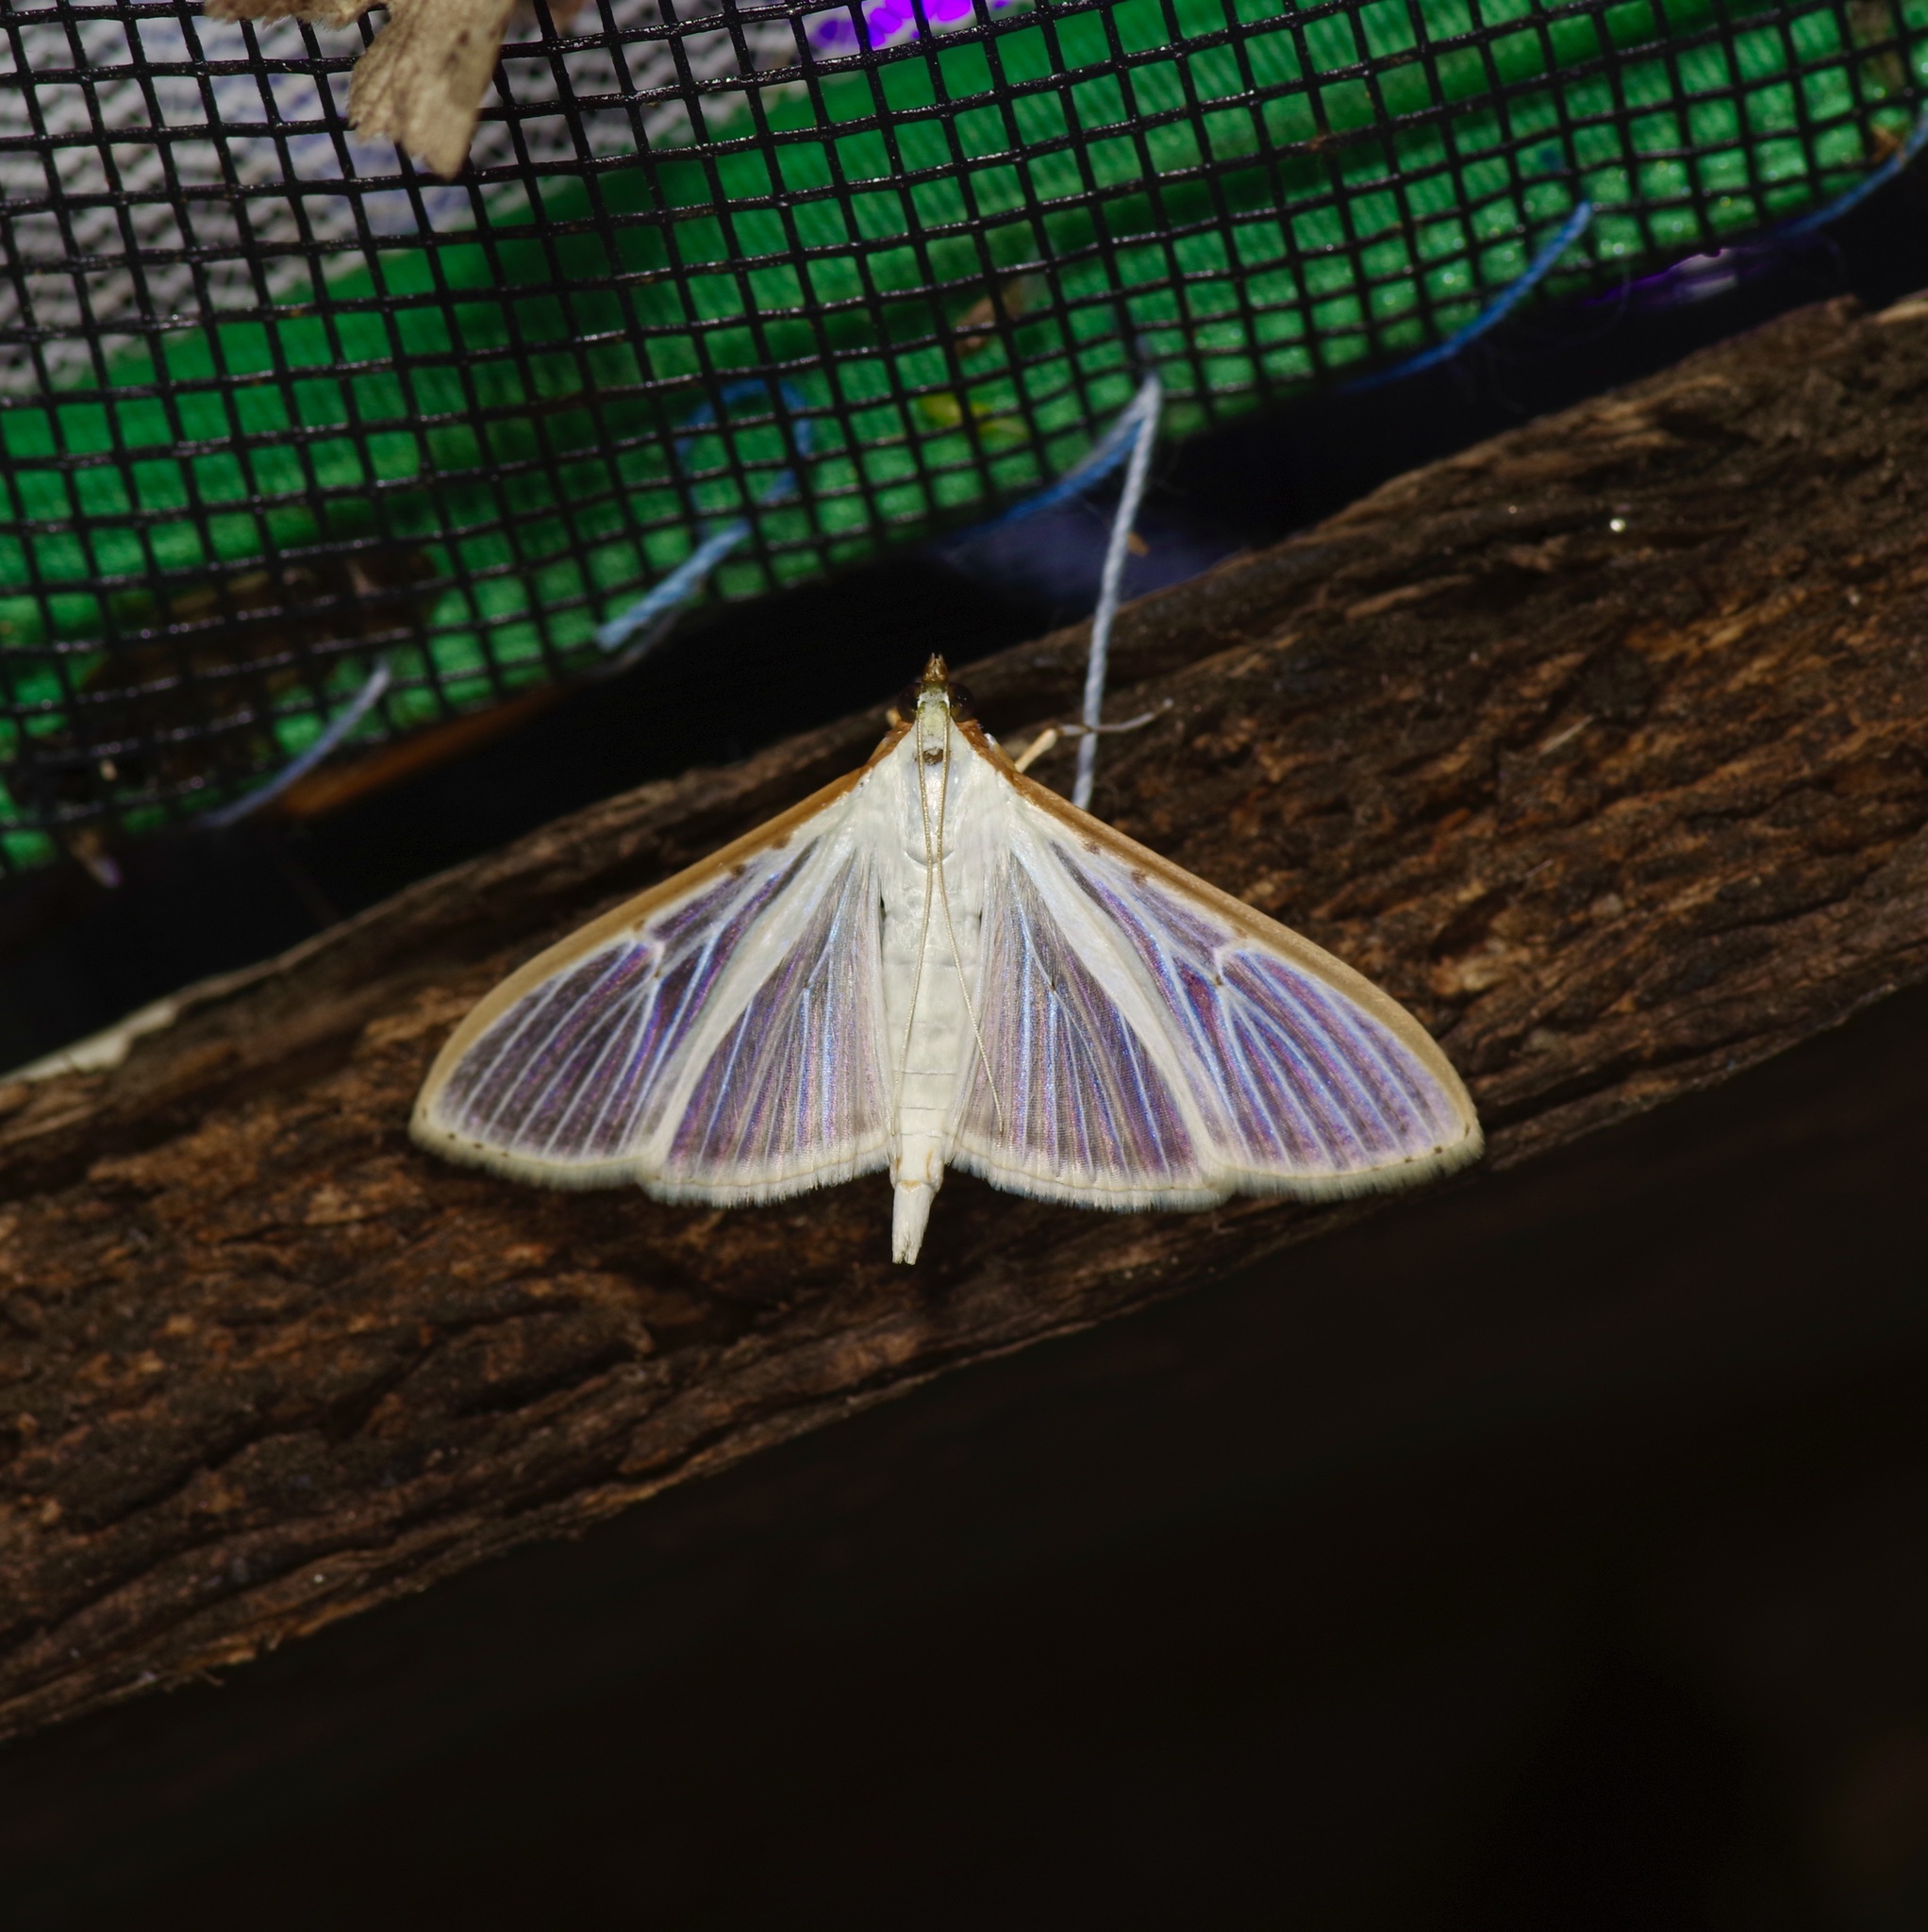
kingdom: Animalia
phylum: Arthropoda
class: Insecta
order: Lepidoptera
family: Crambidae
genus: Palpita
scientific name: Palpita quadristigmalis
